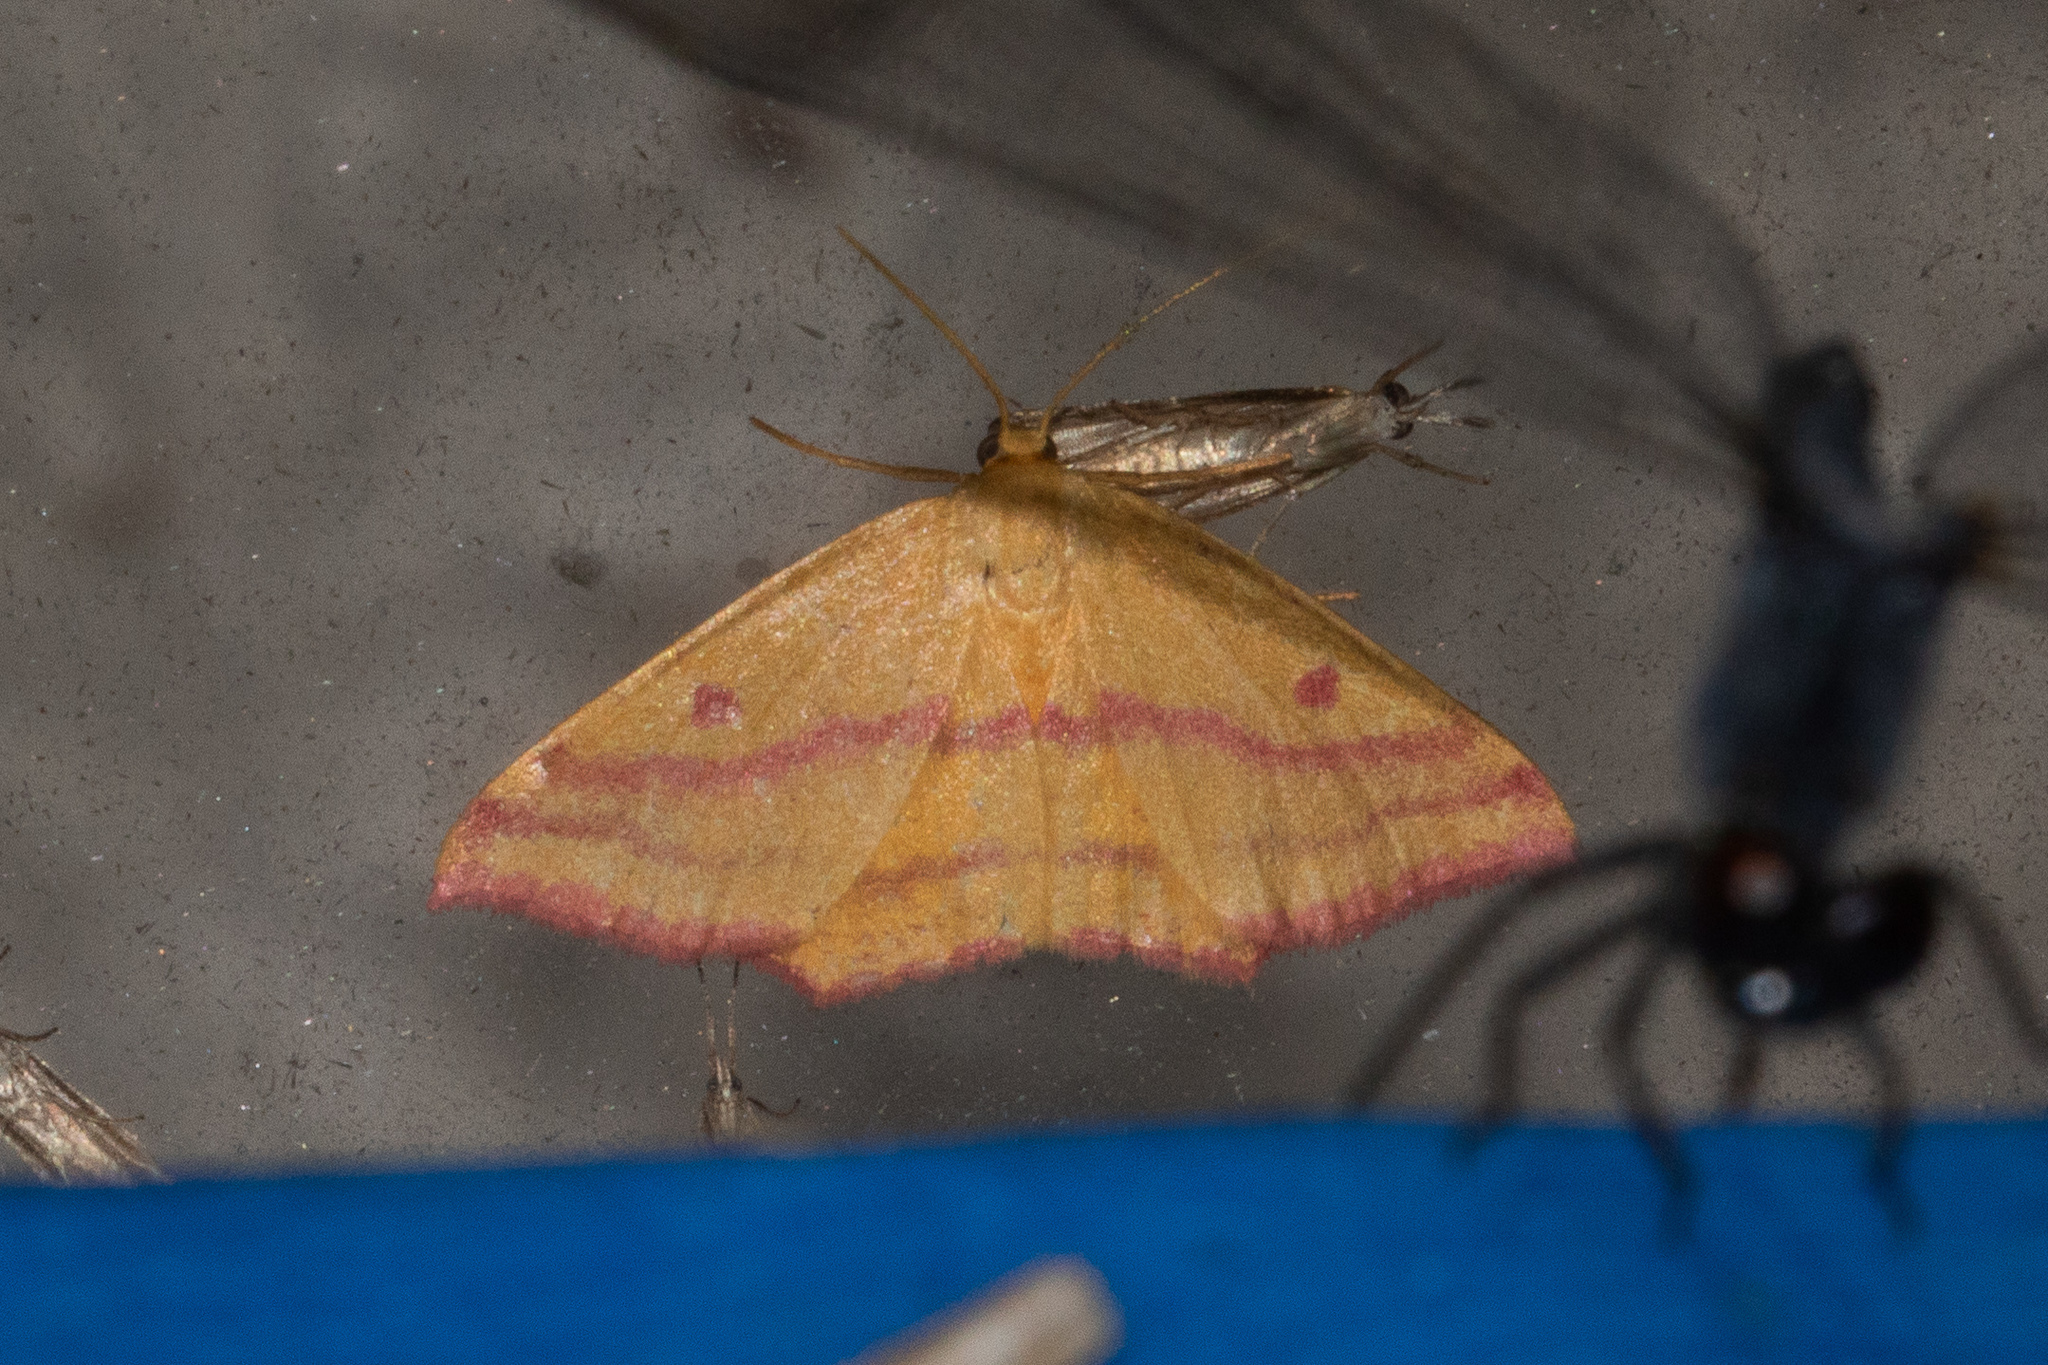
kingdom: Animalia
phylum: Arthropoda
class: Insecta
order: Lepidoptera
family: Geometridae
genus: Haematopis
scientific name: Haematopis grataria
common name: Chickweed geometer
